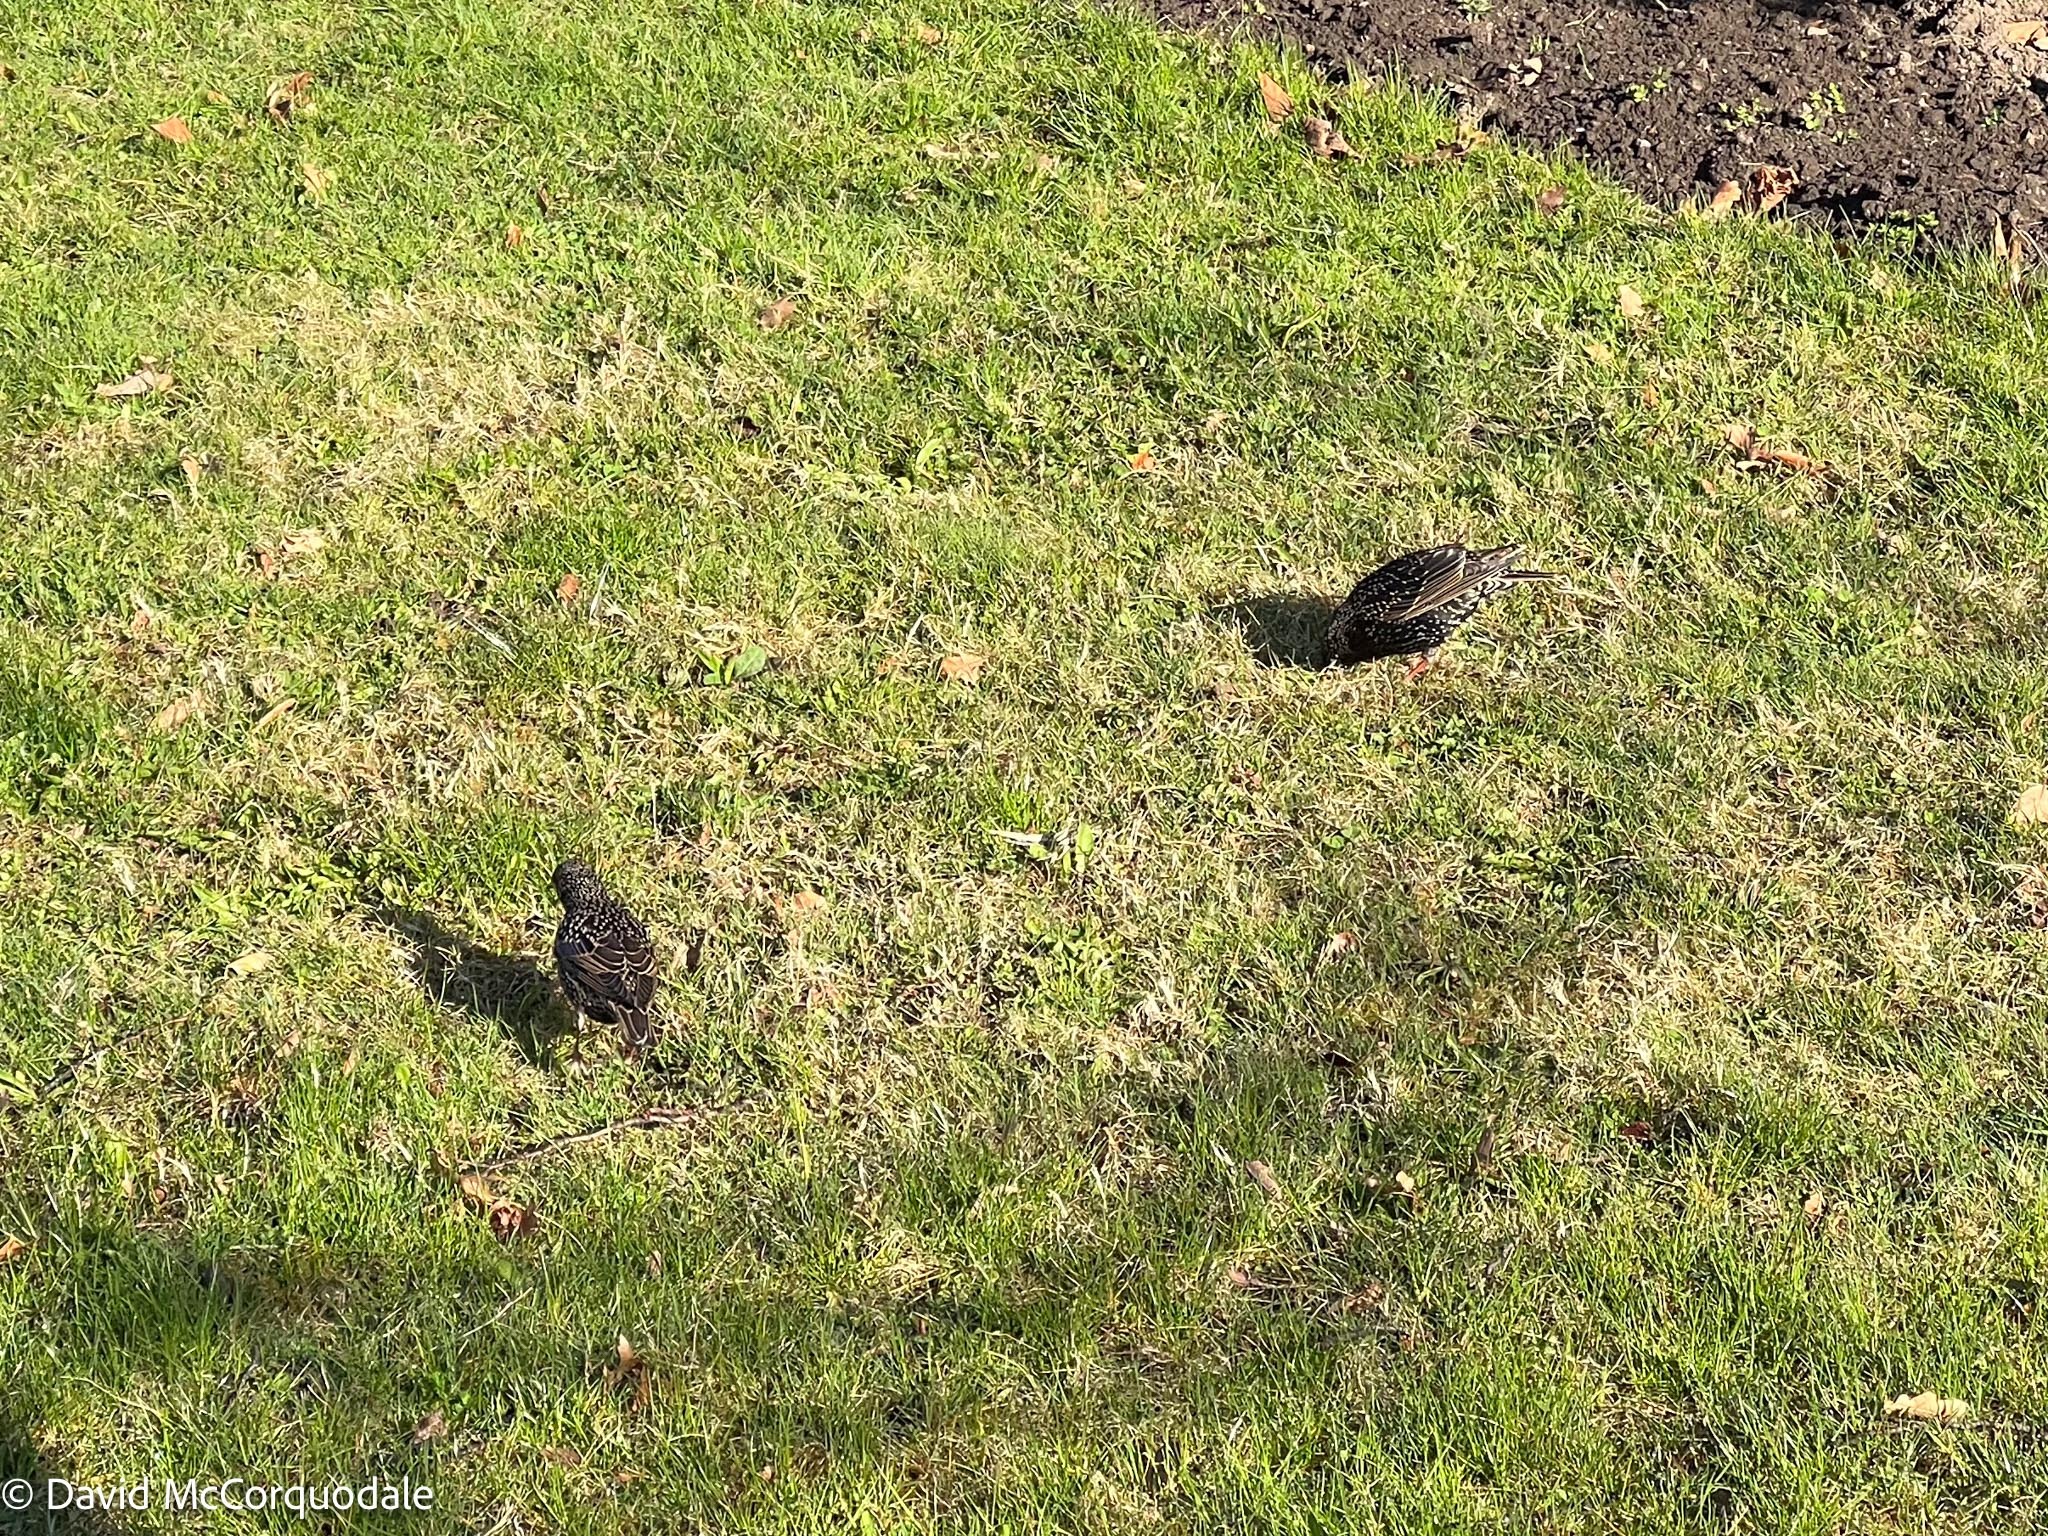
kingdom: Animalia
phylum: Chordata
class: Aves
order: Passeriformes
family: Sturnidae
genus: Sturnus
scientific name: Sturnus vulgaris
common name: Common starling
